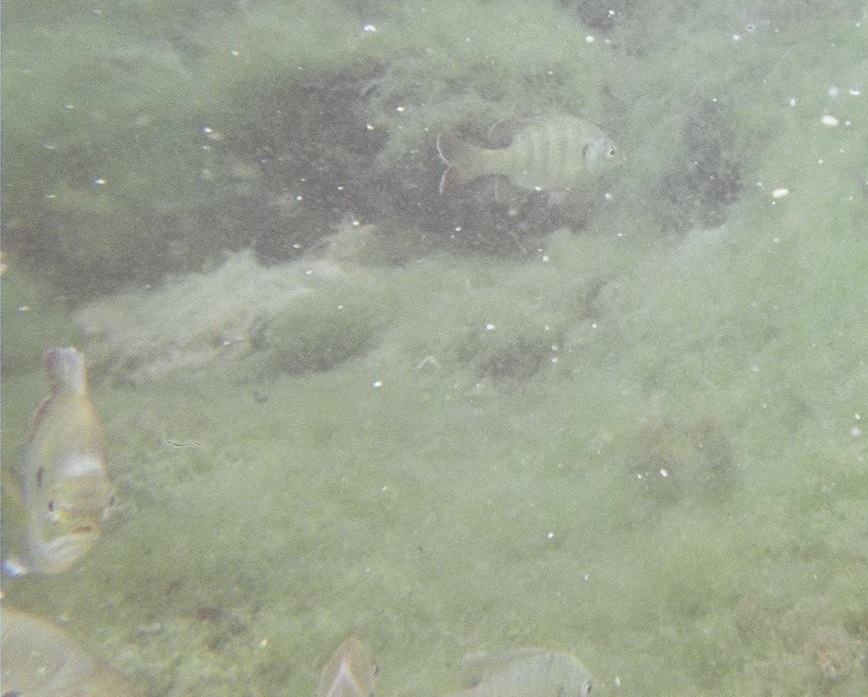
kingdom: Animalia
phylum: Chordata
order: Perciformes
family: Centrarchidae
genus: Lepomis
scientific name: Lepomis macrochirus
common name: Bluegill
